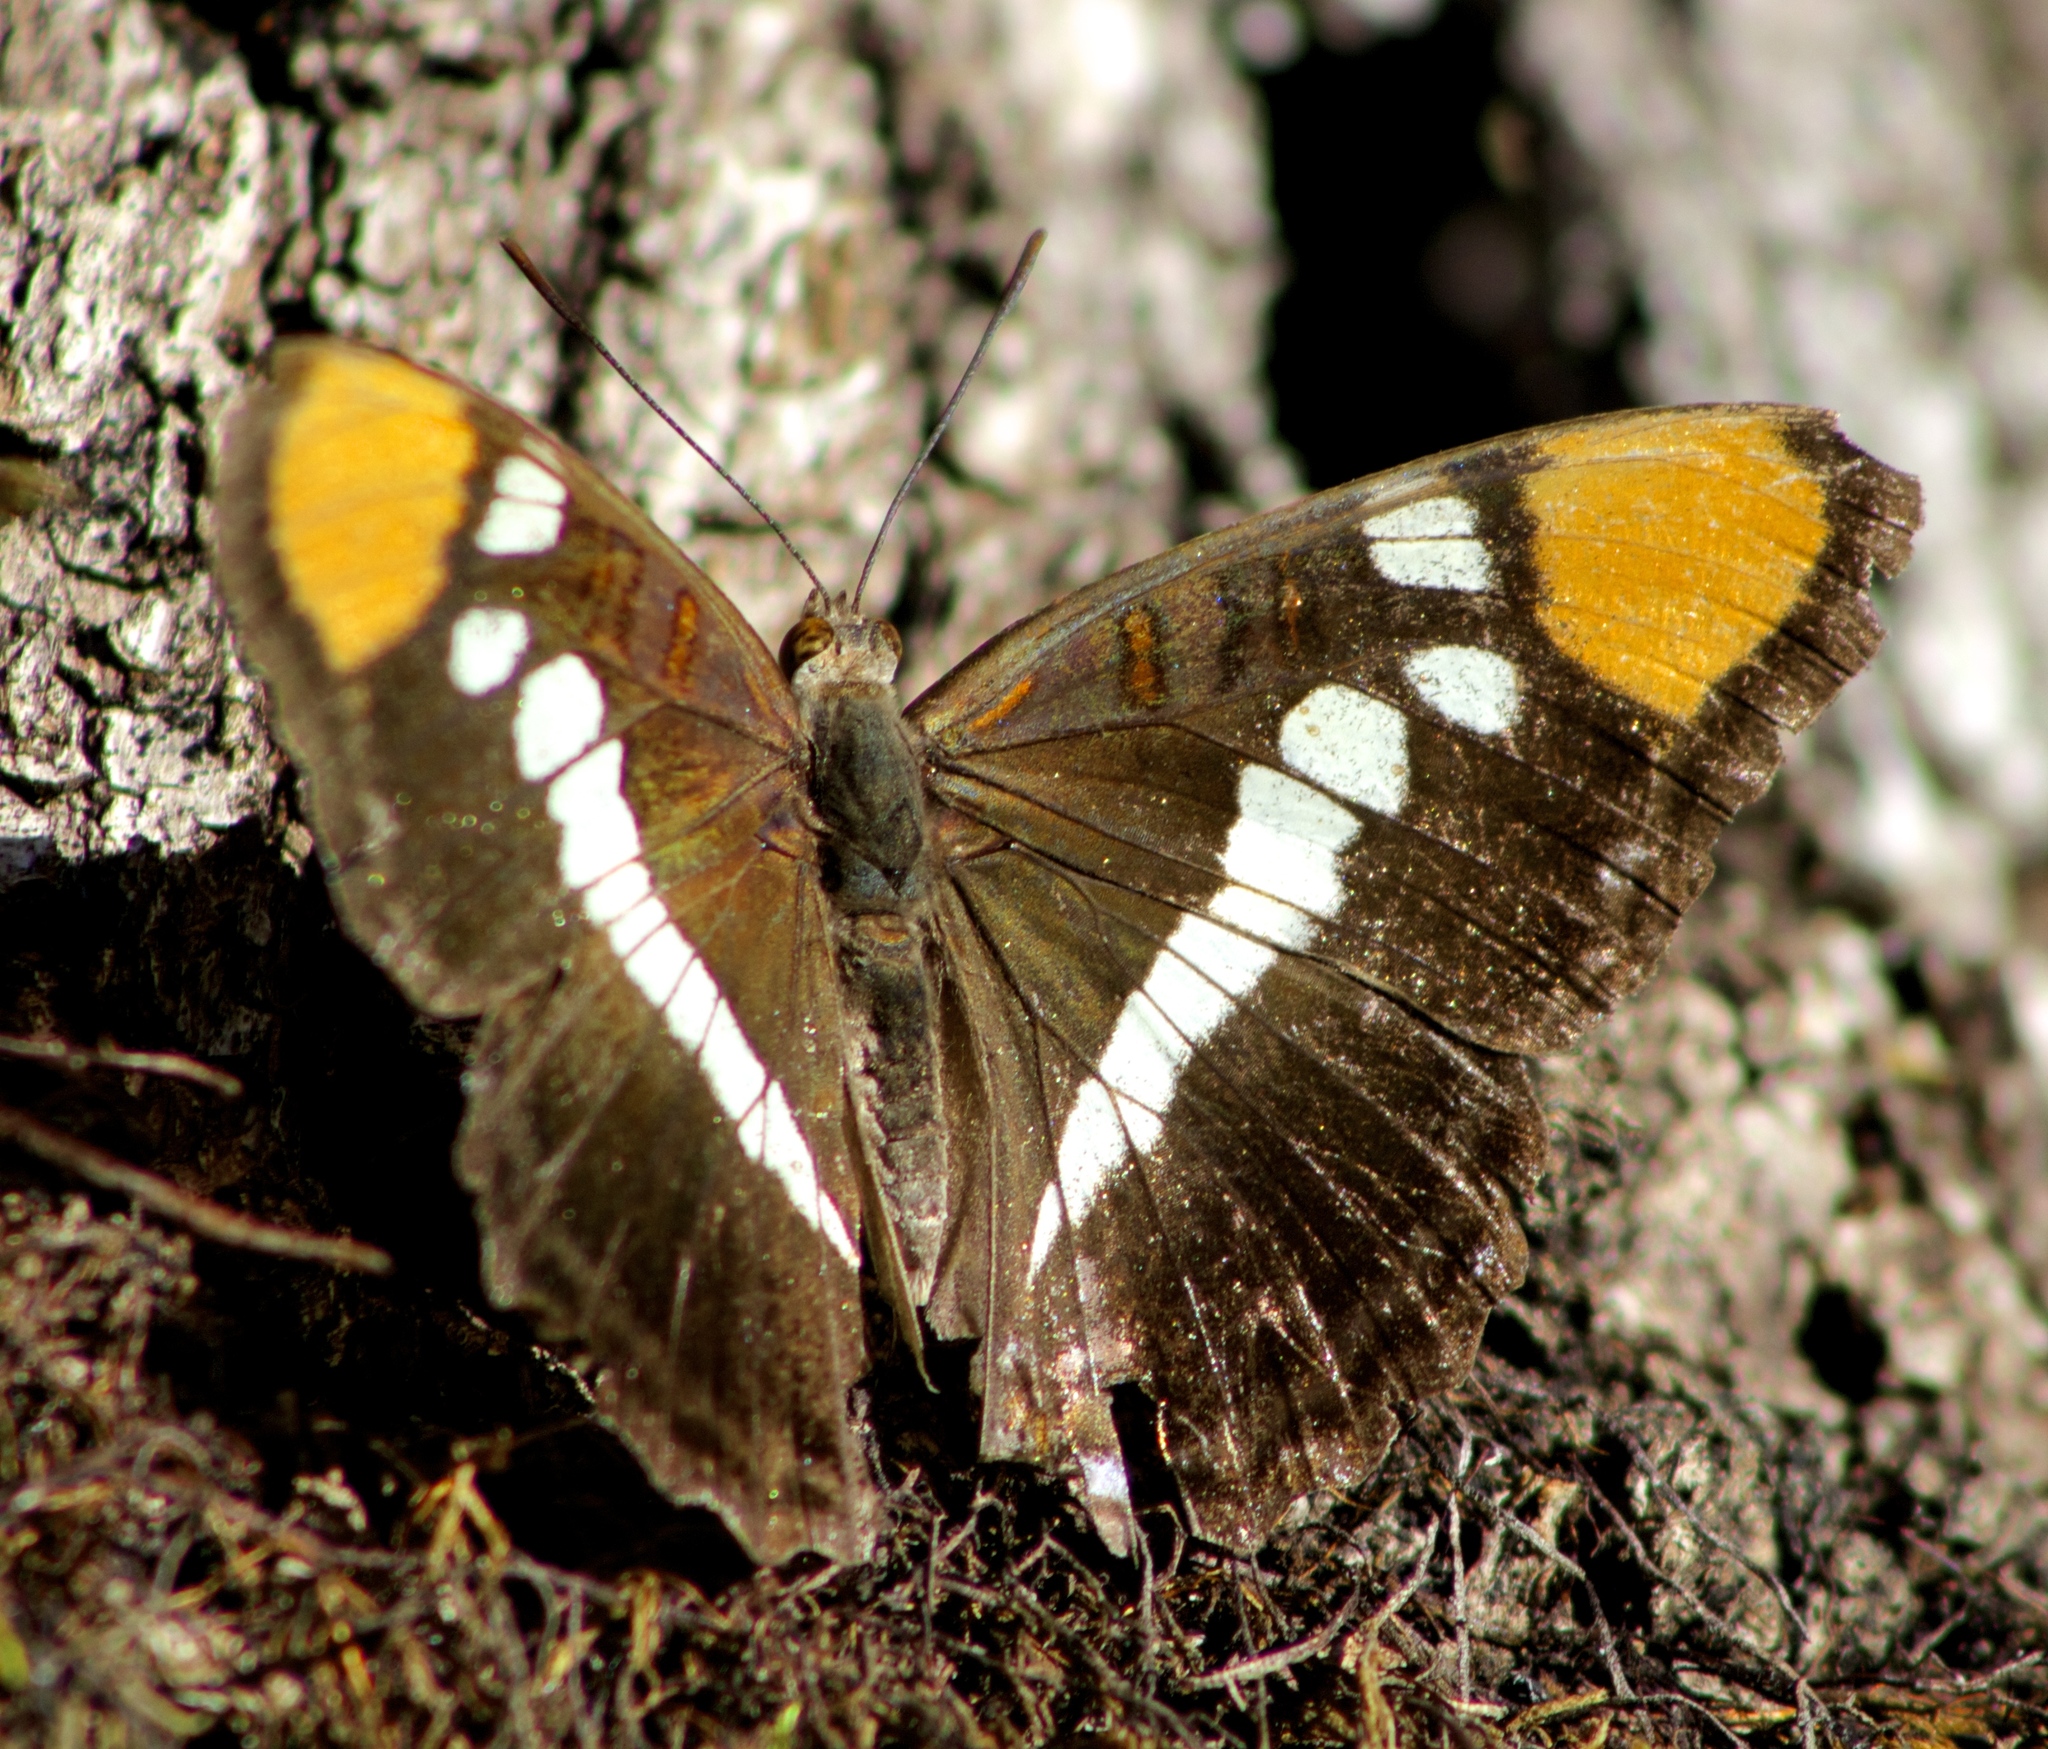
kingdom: Animalia
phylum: Arthropoda
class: Insecta
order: Lepidoptera
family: Nymphalidae
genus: Limenitis
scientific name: Limenitis bredowii
